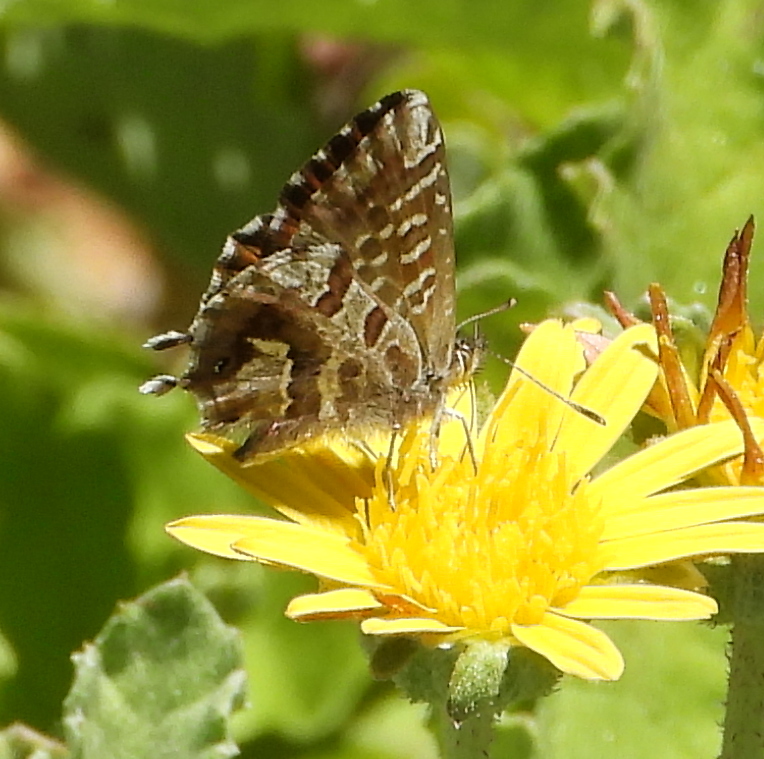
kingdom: Animalia
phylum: Arthropoda
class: Insecta
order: Lepidoptera
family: Lycaenidae
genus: Cacyreus
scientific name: Cacyreus marshalli
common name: Geranium bronze
